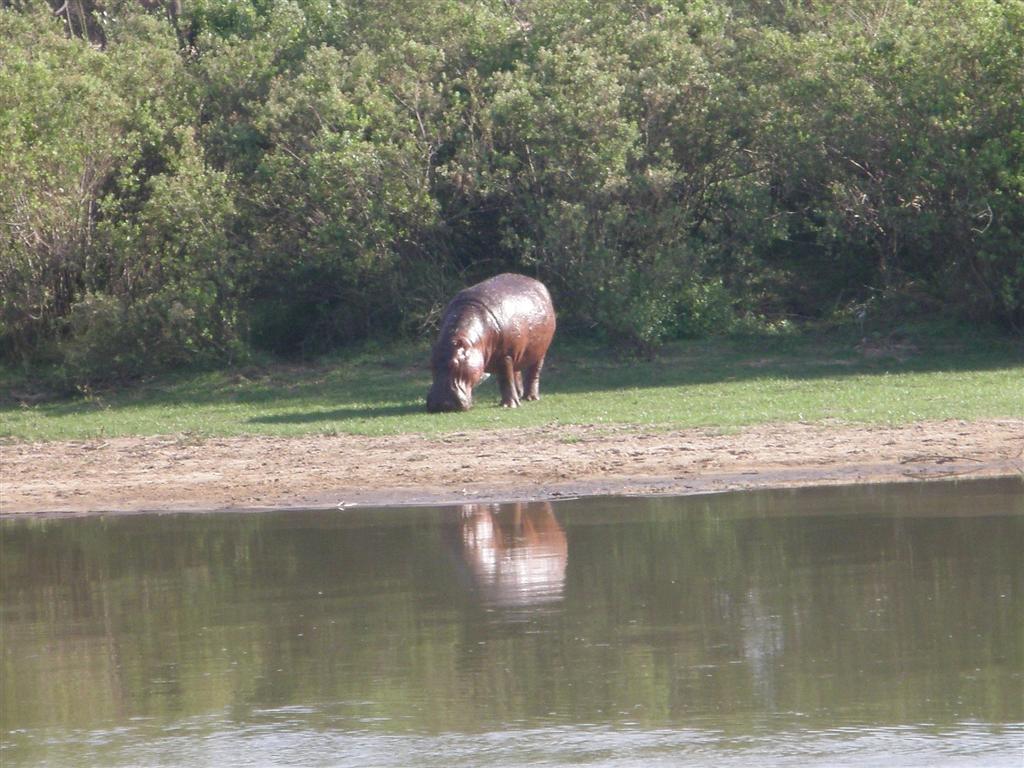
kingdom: Animalia
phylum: Chordata
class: Mammalia
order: Artiodactyla
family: Hippopotamidae
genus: Hippopotamus
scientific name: Hippopotamus amphibius
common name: Common hippopotamus
